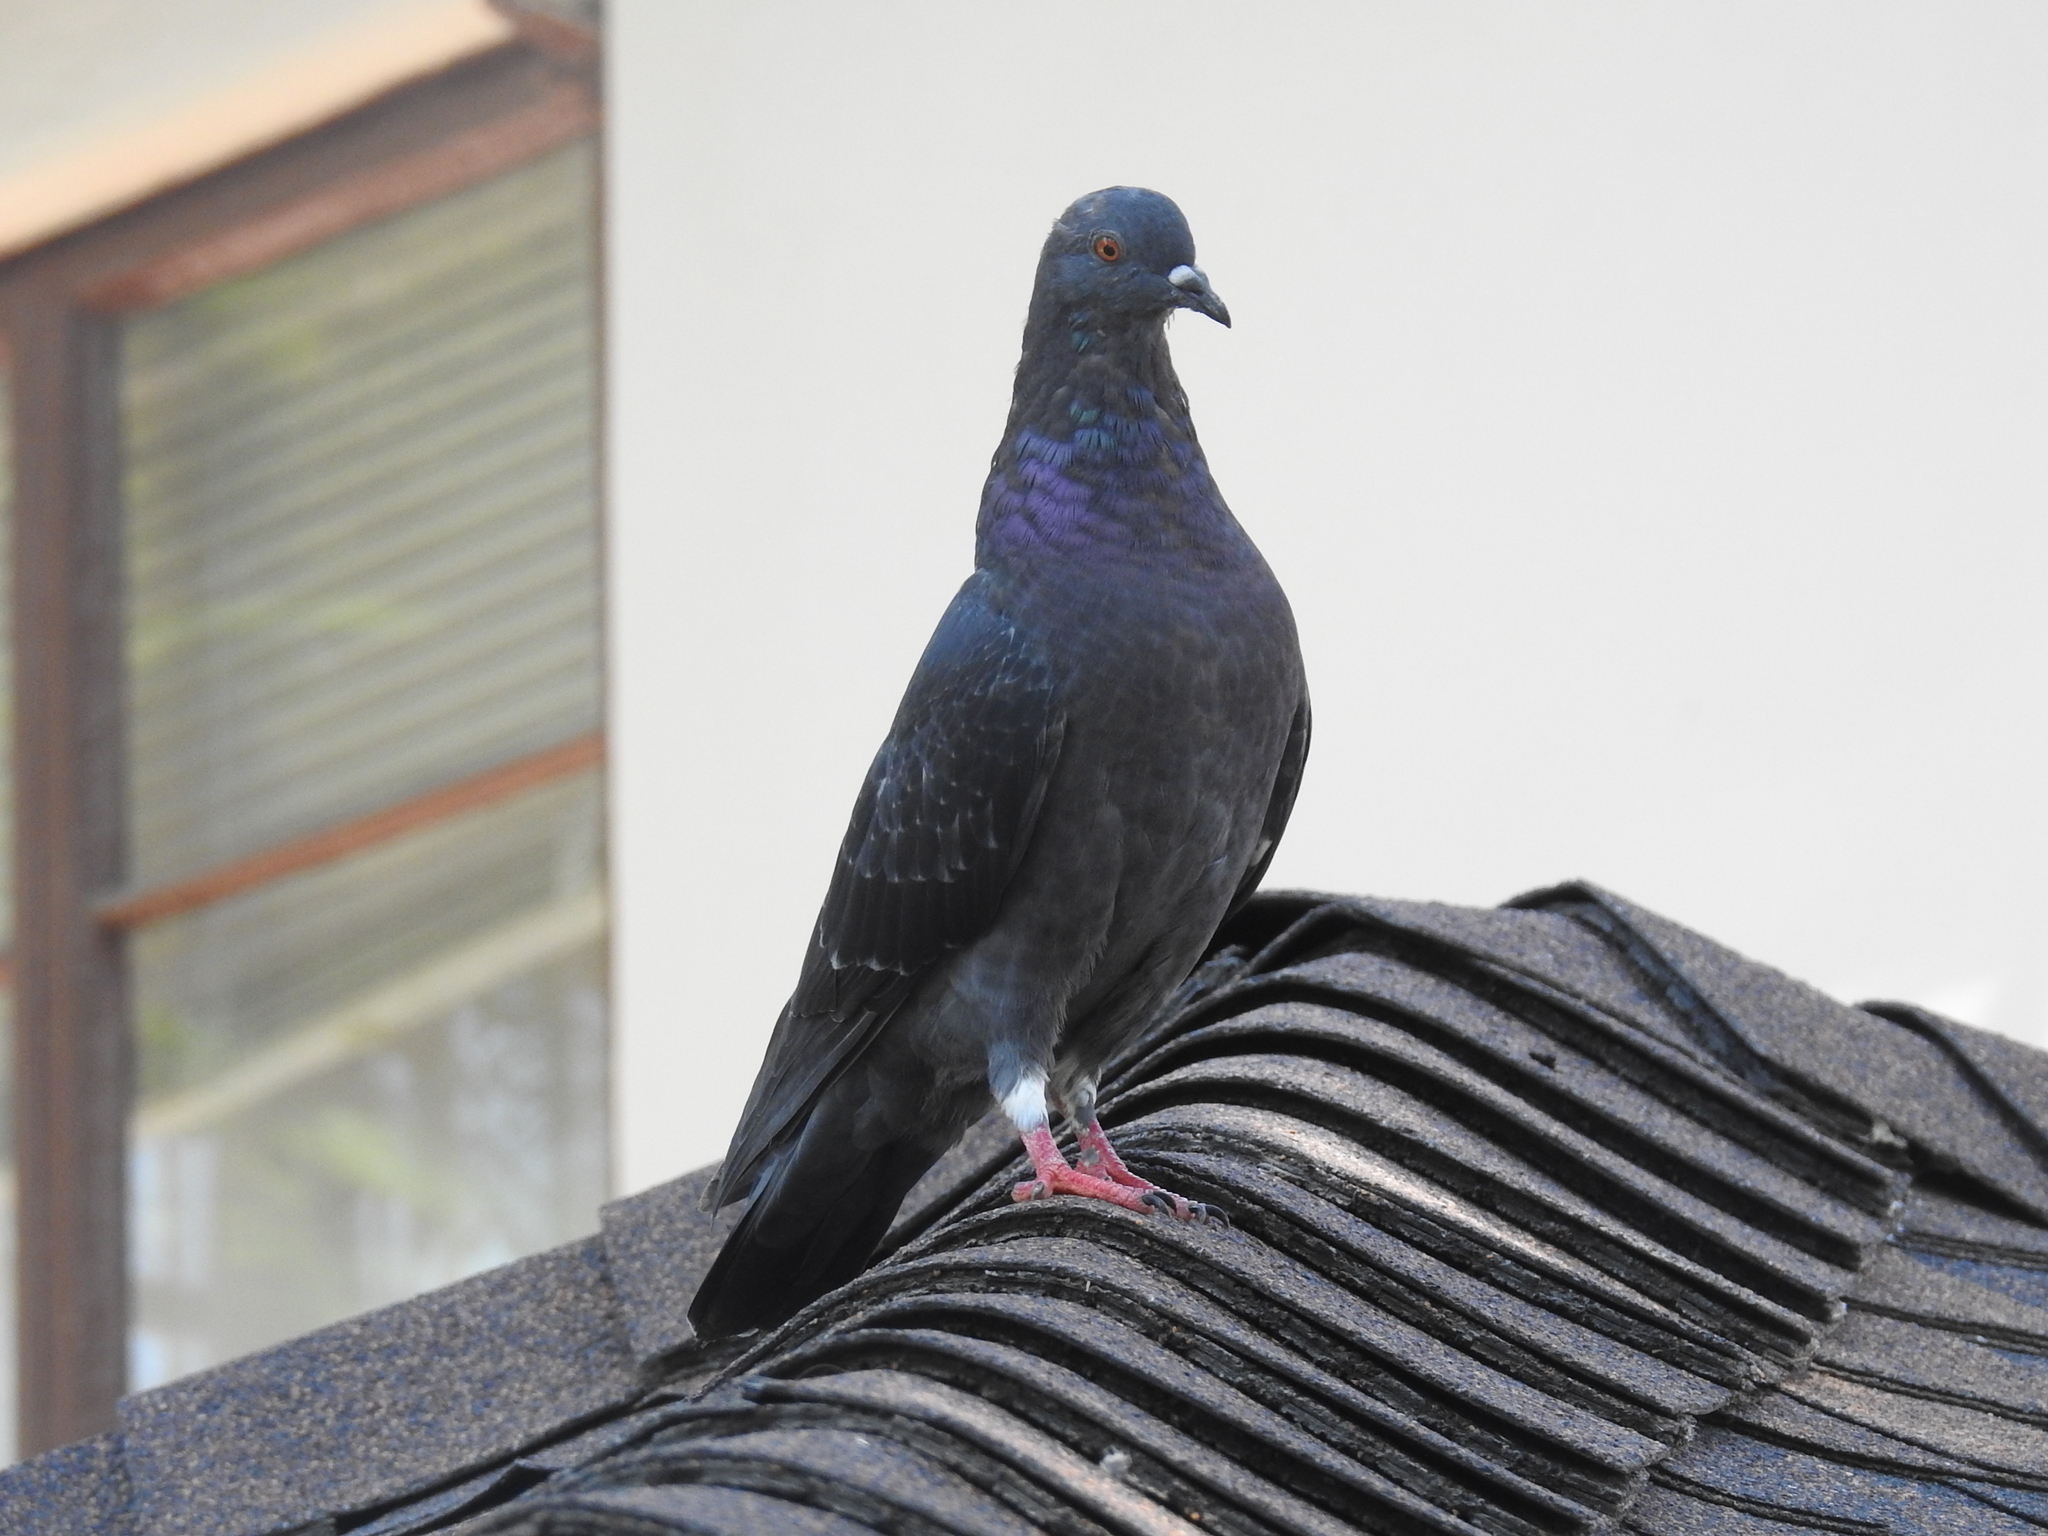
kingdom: Animalia
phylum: Chordata
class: Aves
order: Columbiformes
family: Columbidae
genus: Columba
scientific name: Columba livia
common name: Rock pigeon
